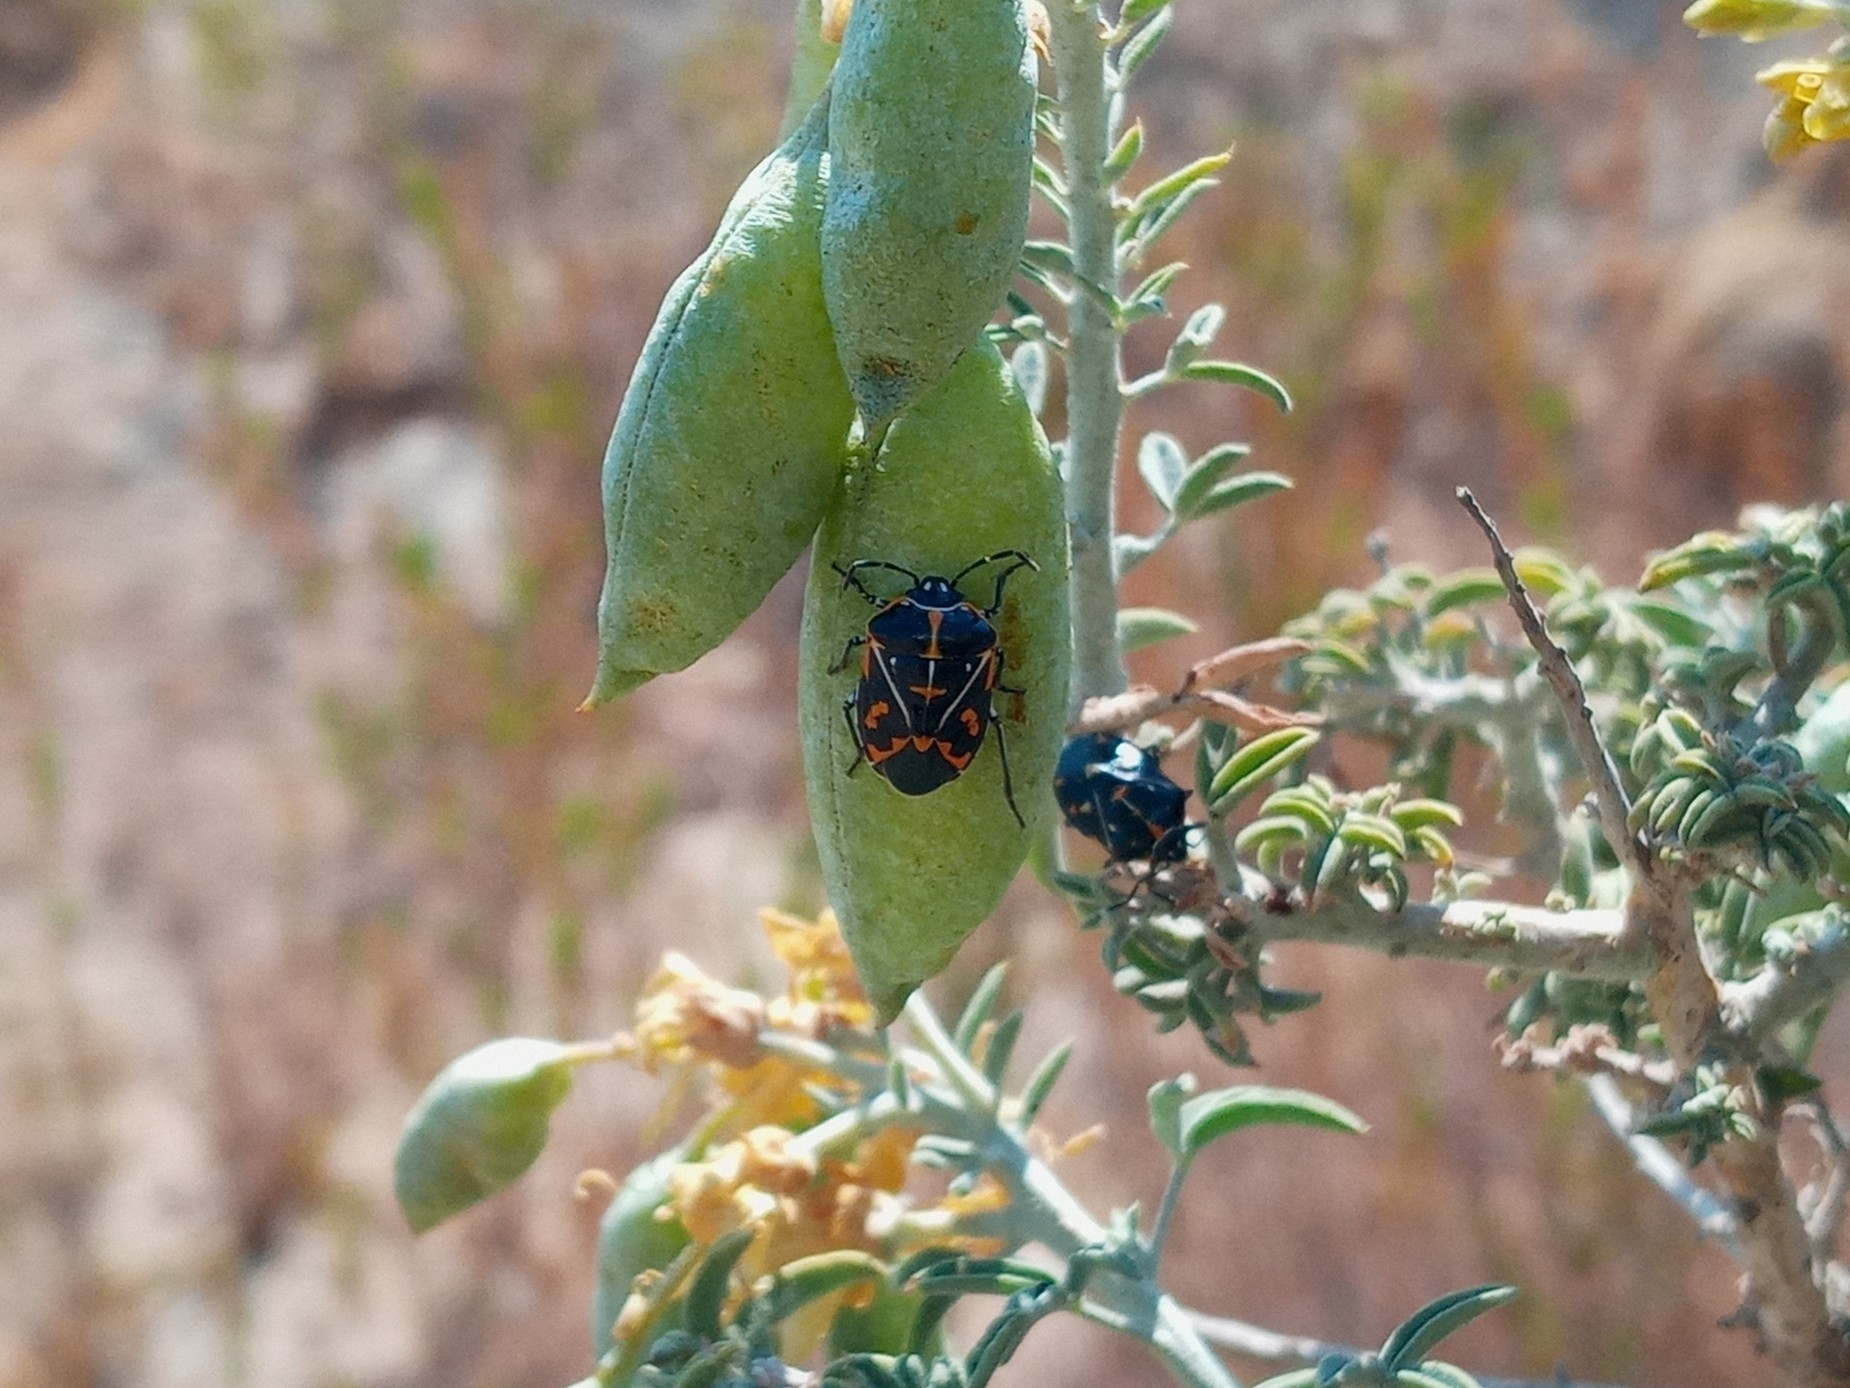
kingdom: Animalia
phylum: Arthropoda
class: Insecta
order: Hemiptera
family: Pentatomidae
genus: Murgantia
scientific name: Murgantia histrionica
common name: Harlequin bug
